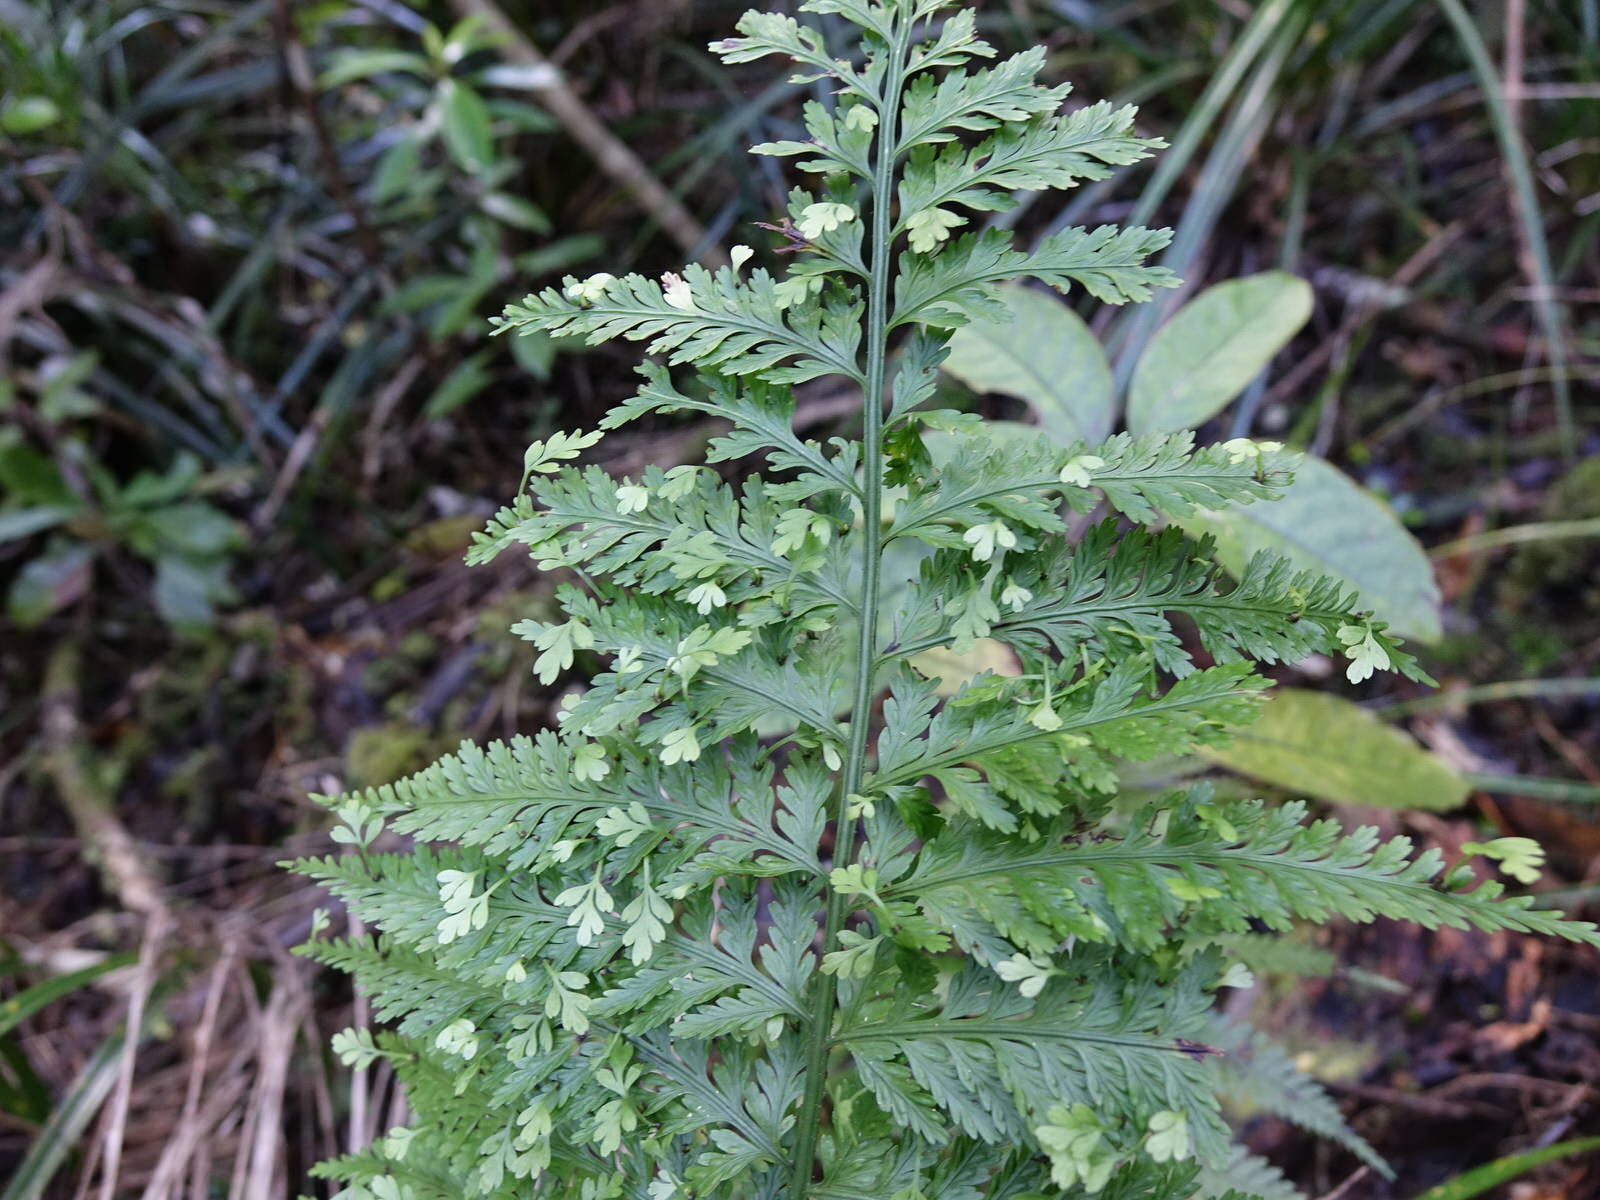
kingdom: Plantae
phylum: Tracheophyta
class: Polypodiopsida
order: Polypodiales
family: Aspleniaceae
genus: Asplenium
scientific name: Asplenium bulbiferum
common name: Mother fern
